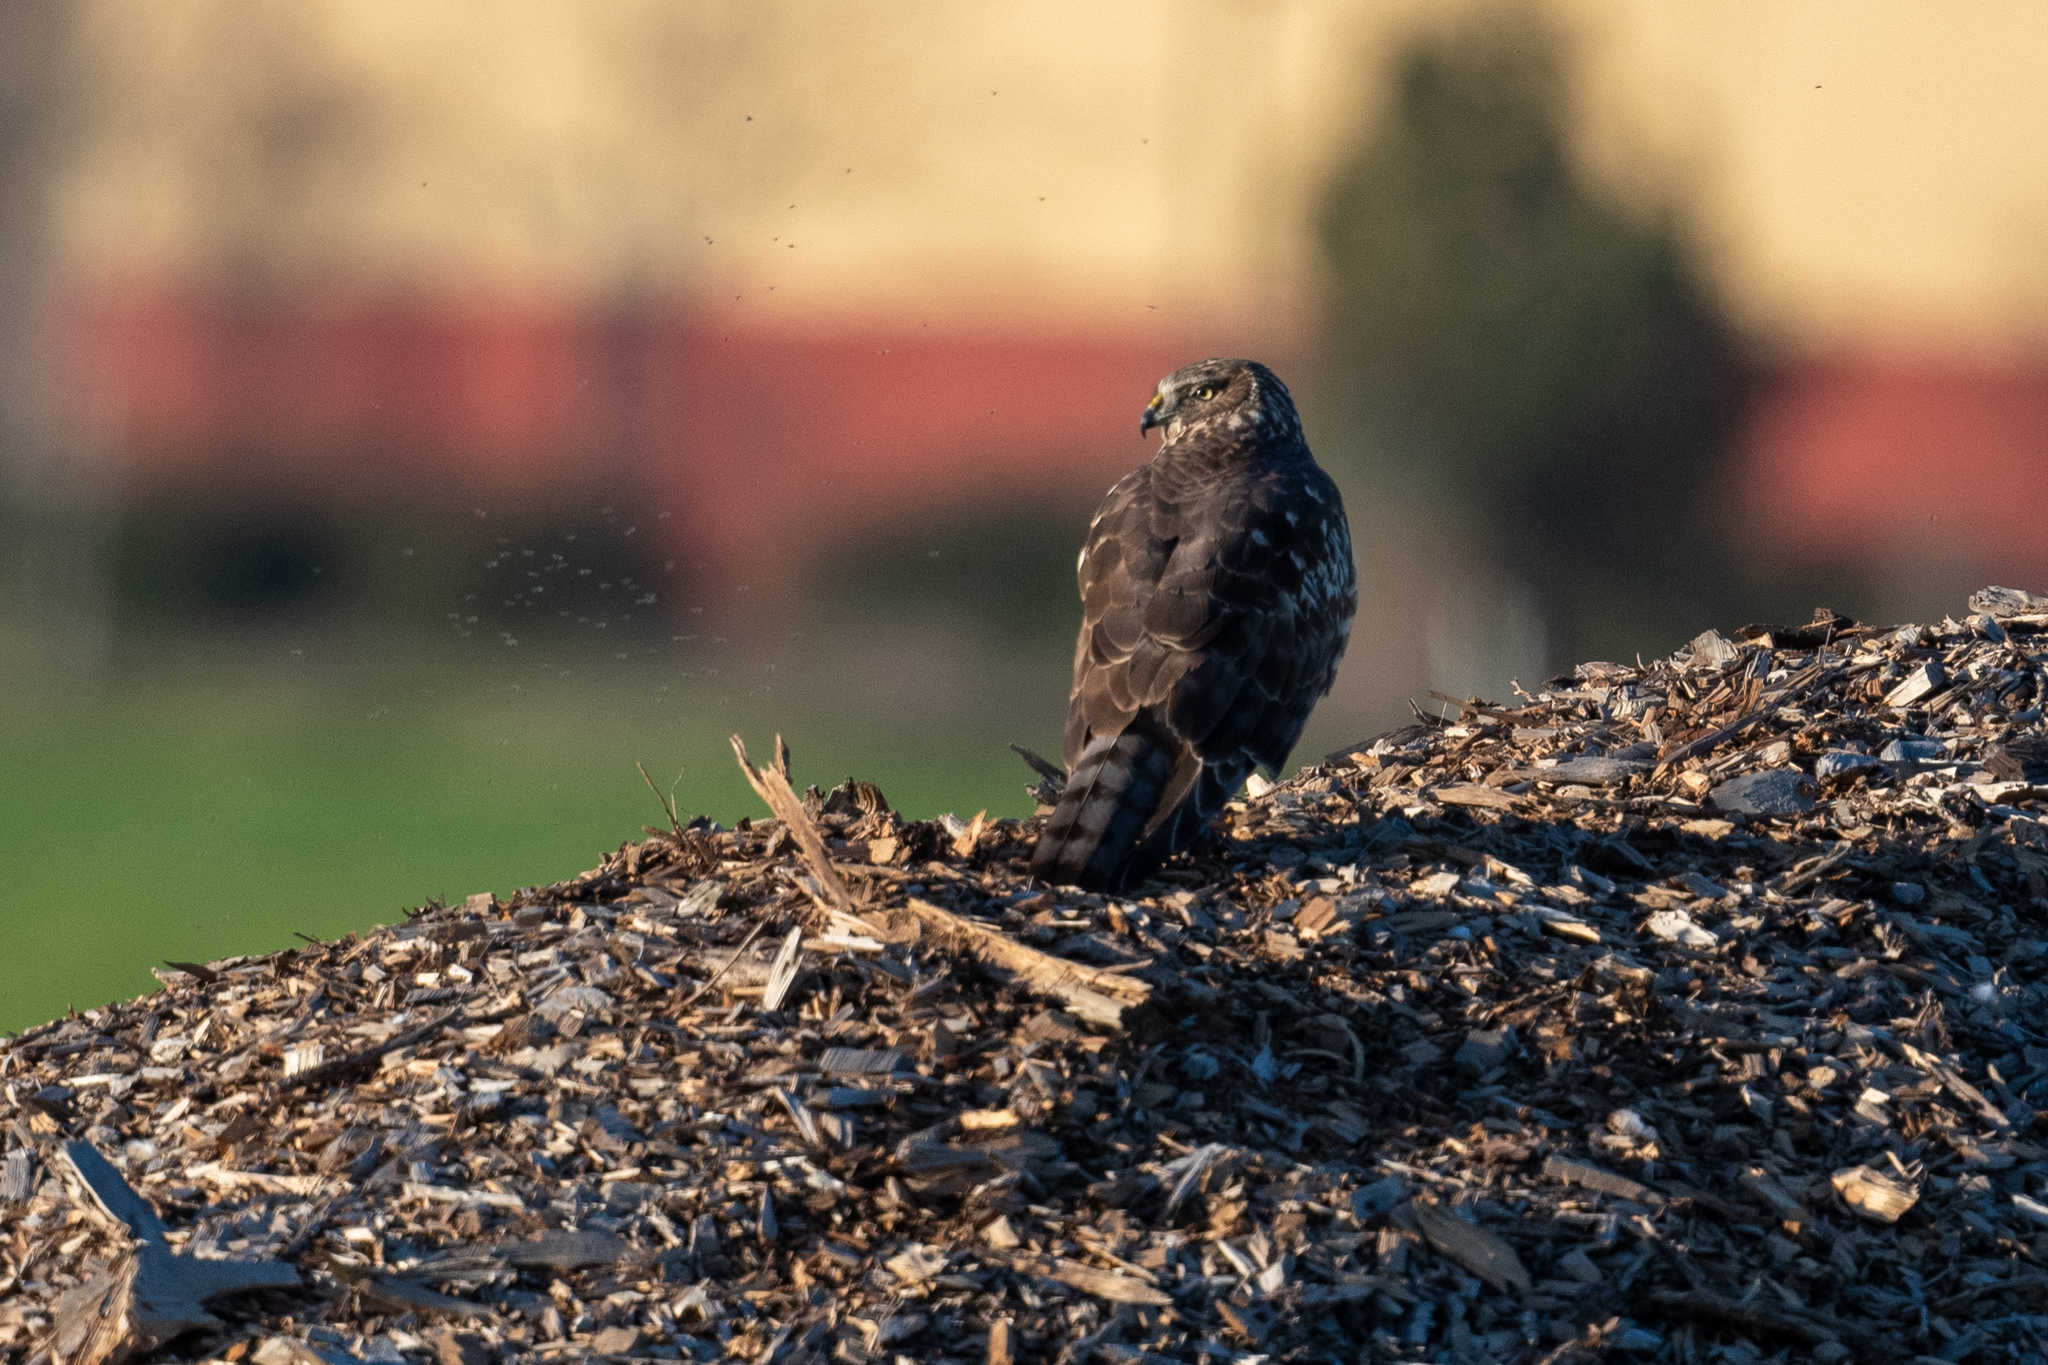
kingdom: Animalia
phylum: Chordata
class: Aves
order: Accipitriformes
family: Accipitridae
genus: Circus
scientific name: Circus cyaneus
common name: Hen harrier
